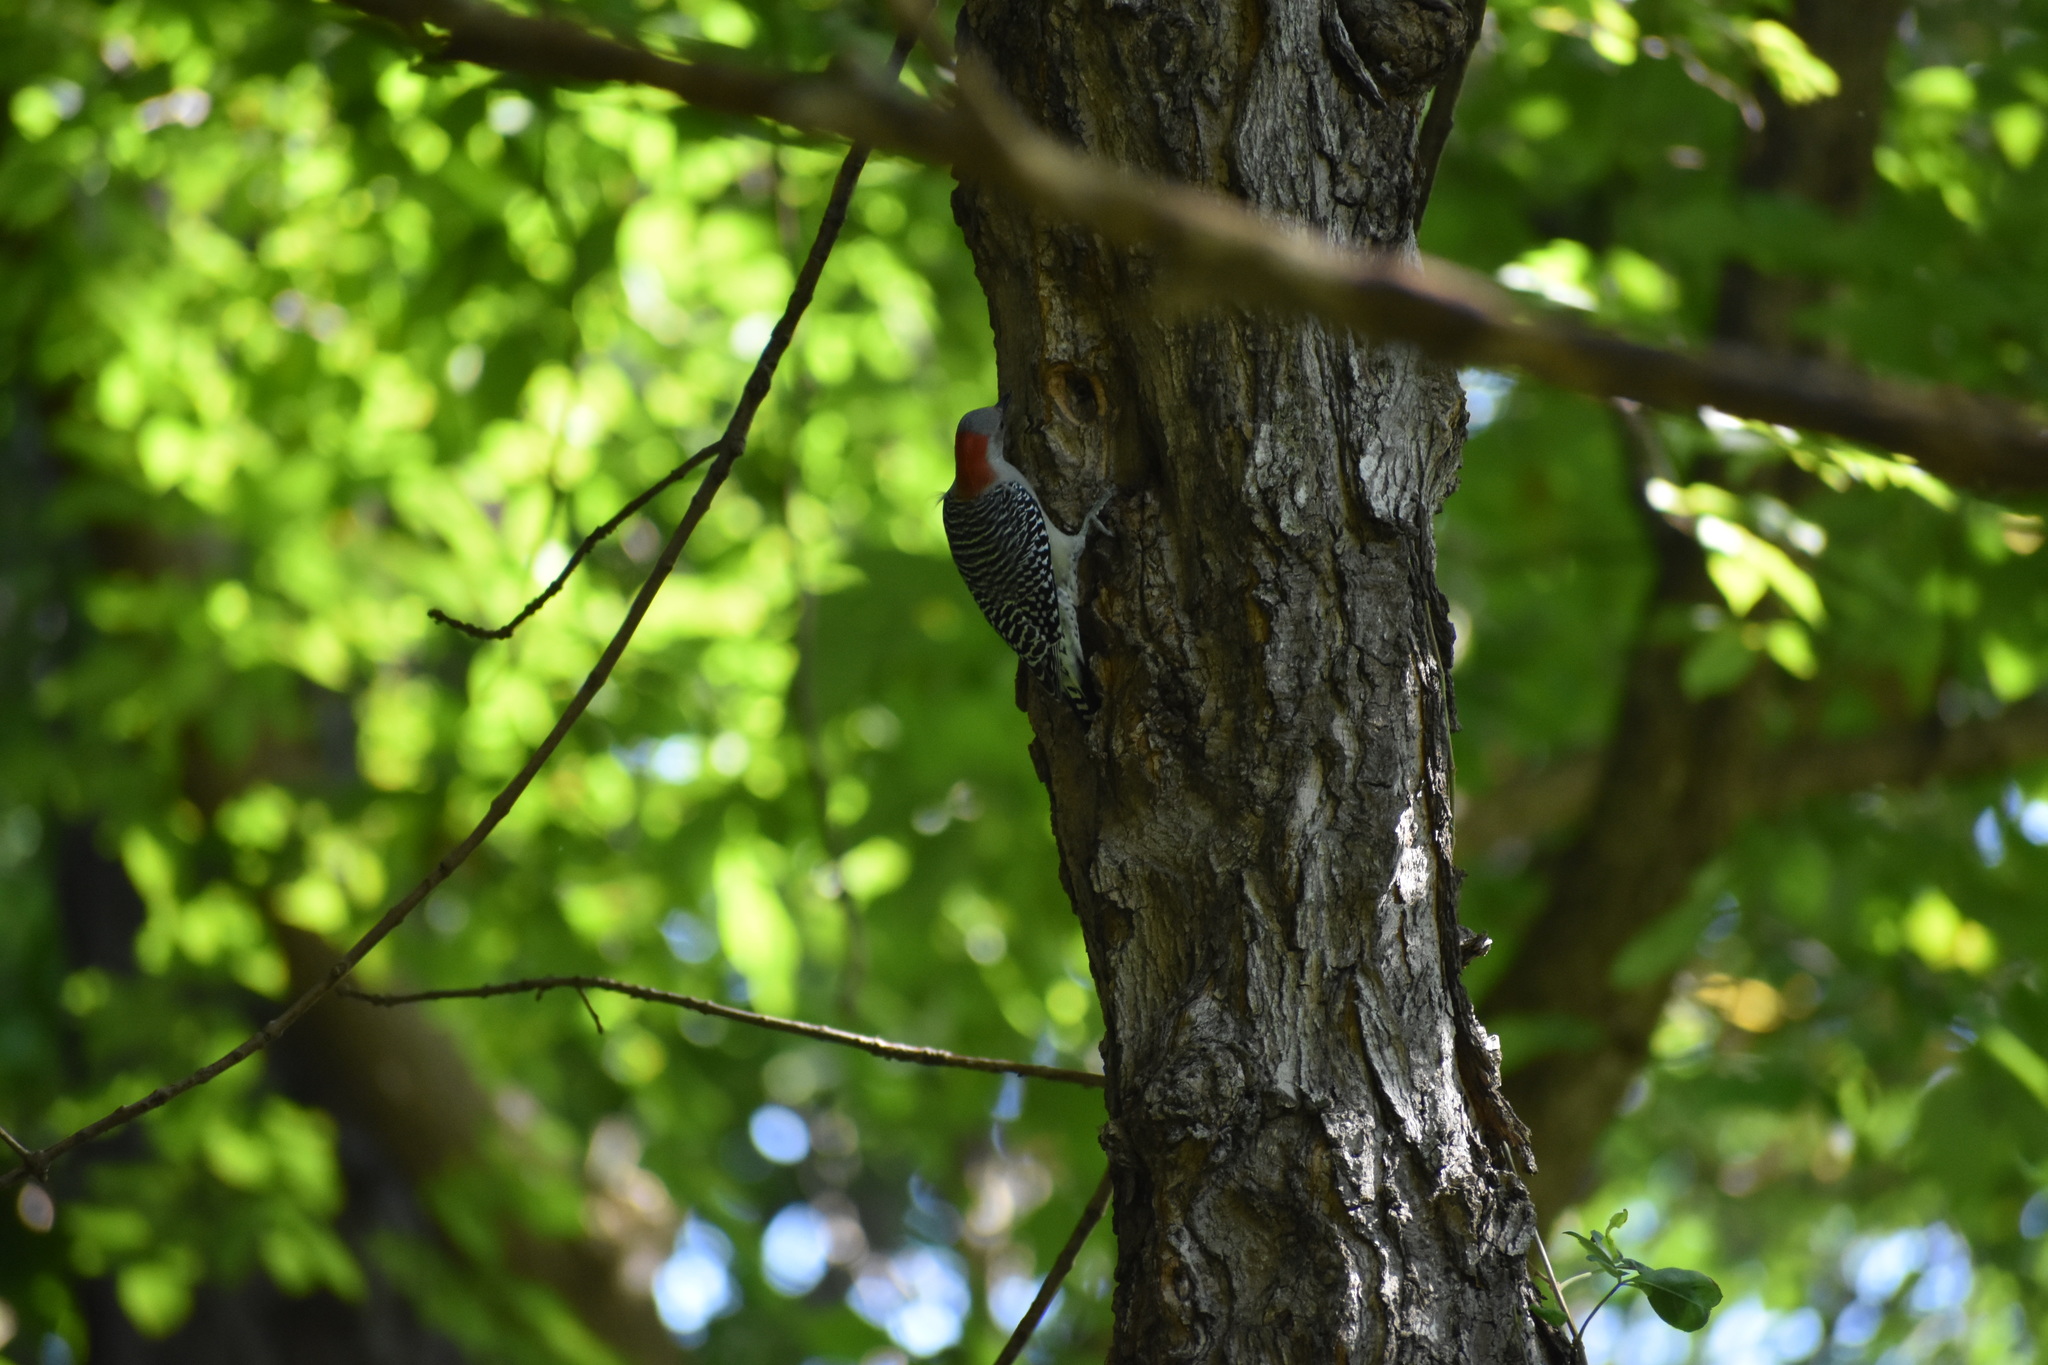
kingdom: Animalia
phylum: Chordata
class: Aves
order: Piciformes
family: Picidae
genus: Melanerpes
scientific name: Melanerpes carolinus
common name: Red-bellied woodpecker
